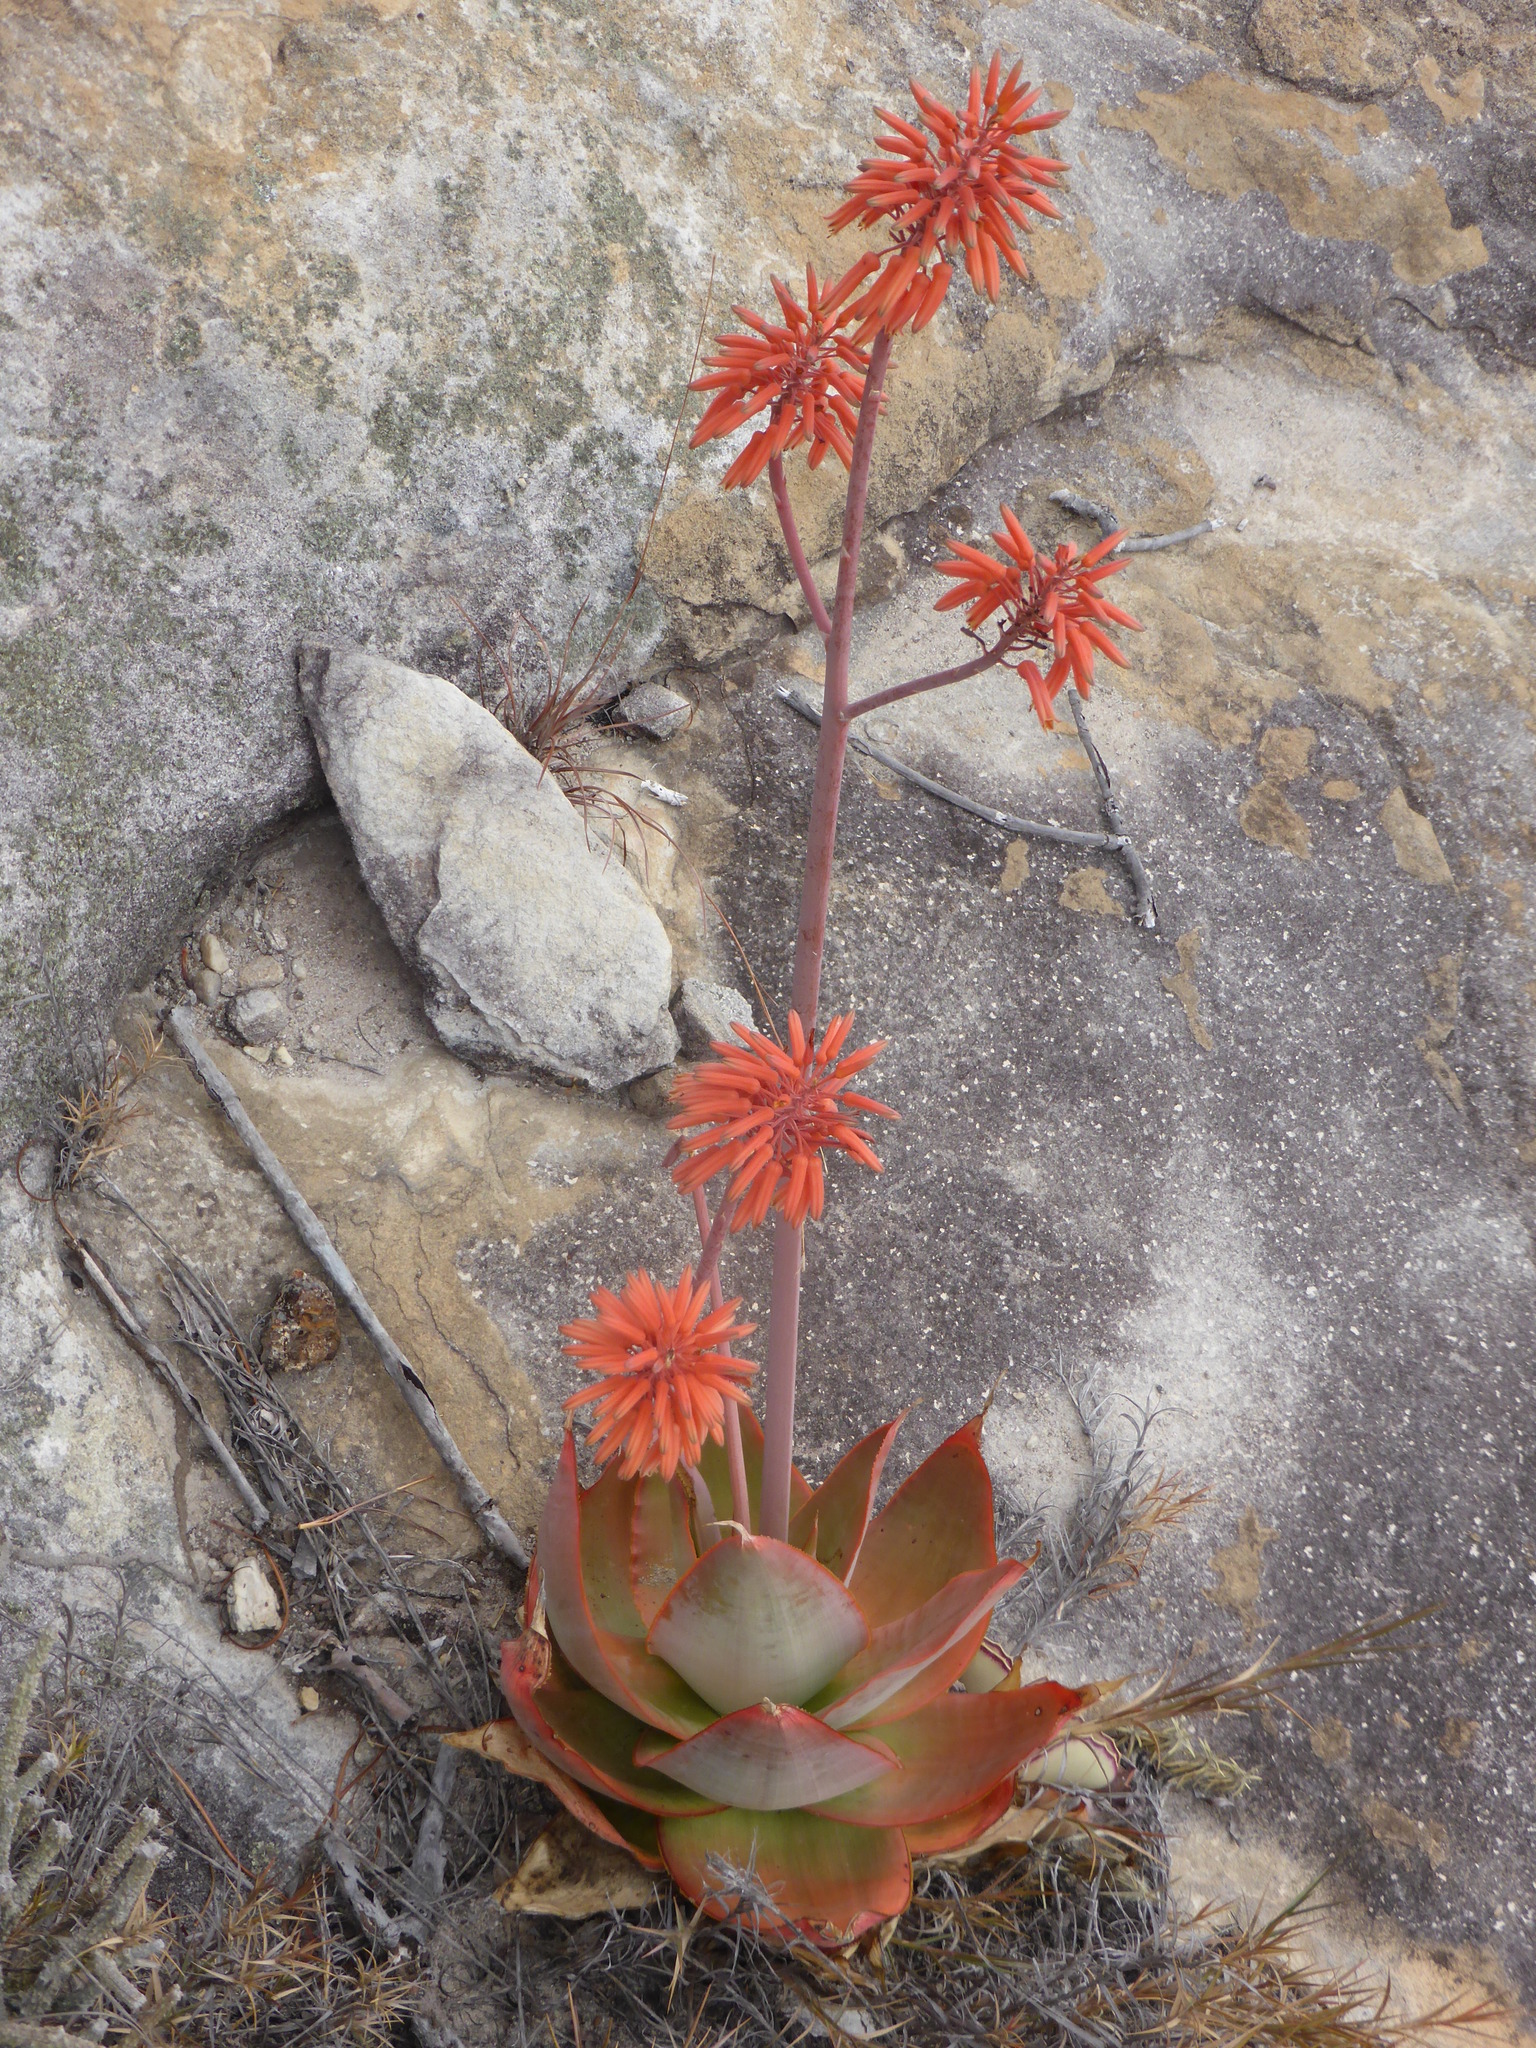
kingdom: Plantae
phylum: Tracheophyta
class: Liliopsida
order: Asparagales
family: Asphodelaceae
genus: Aloe
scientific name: Aloe imalotensis
